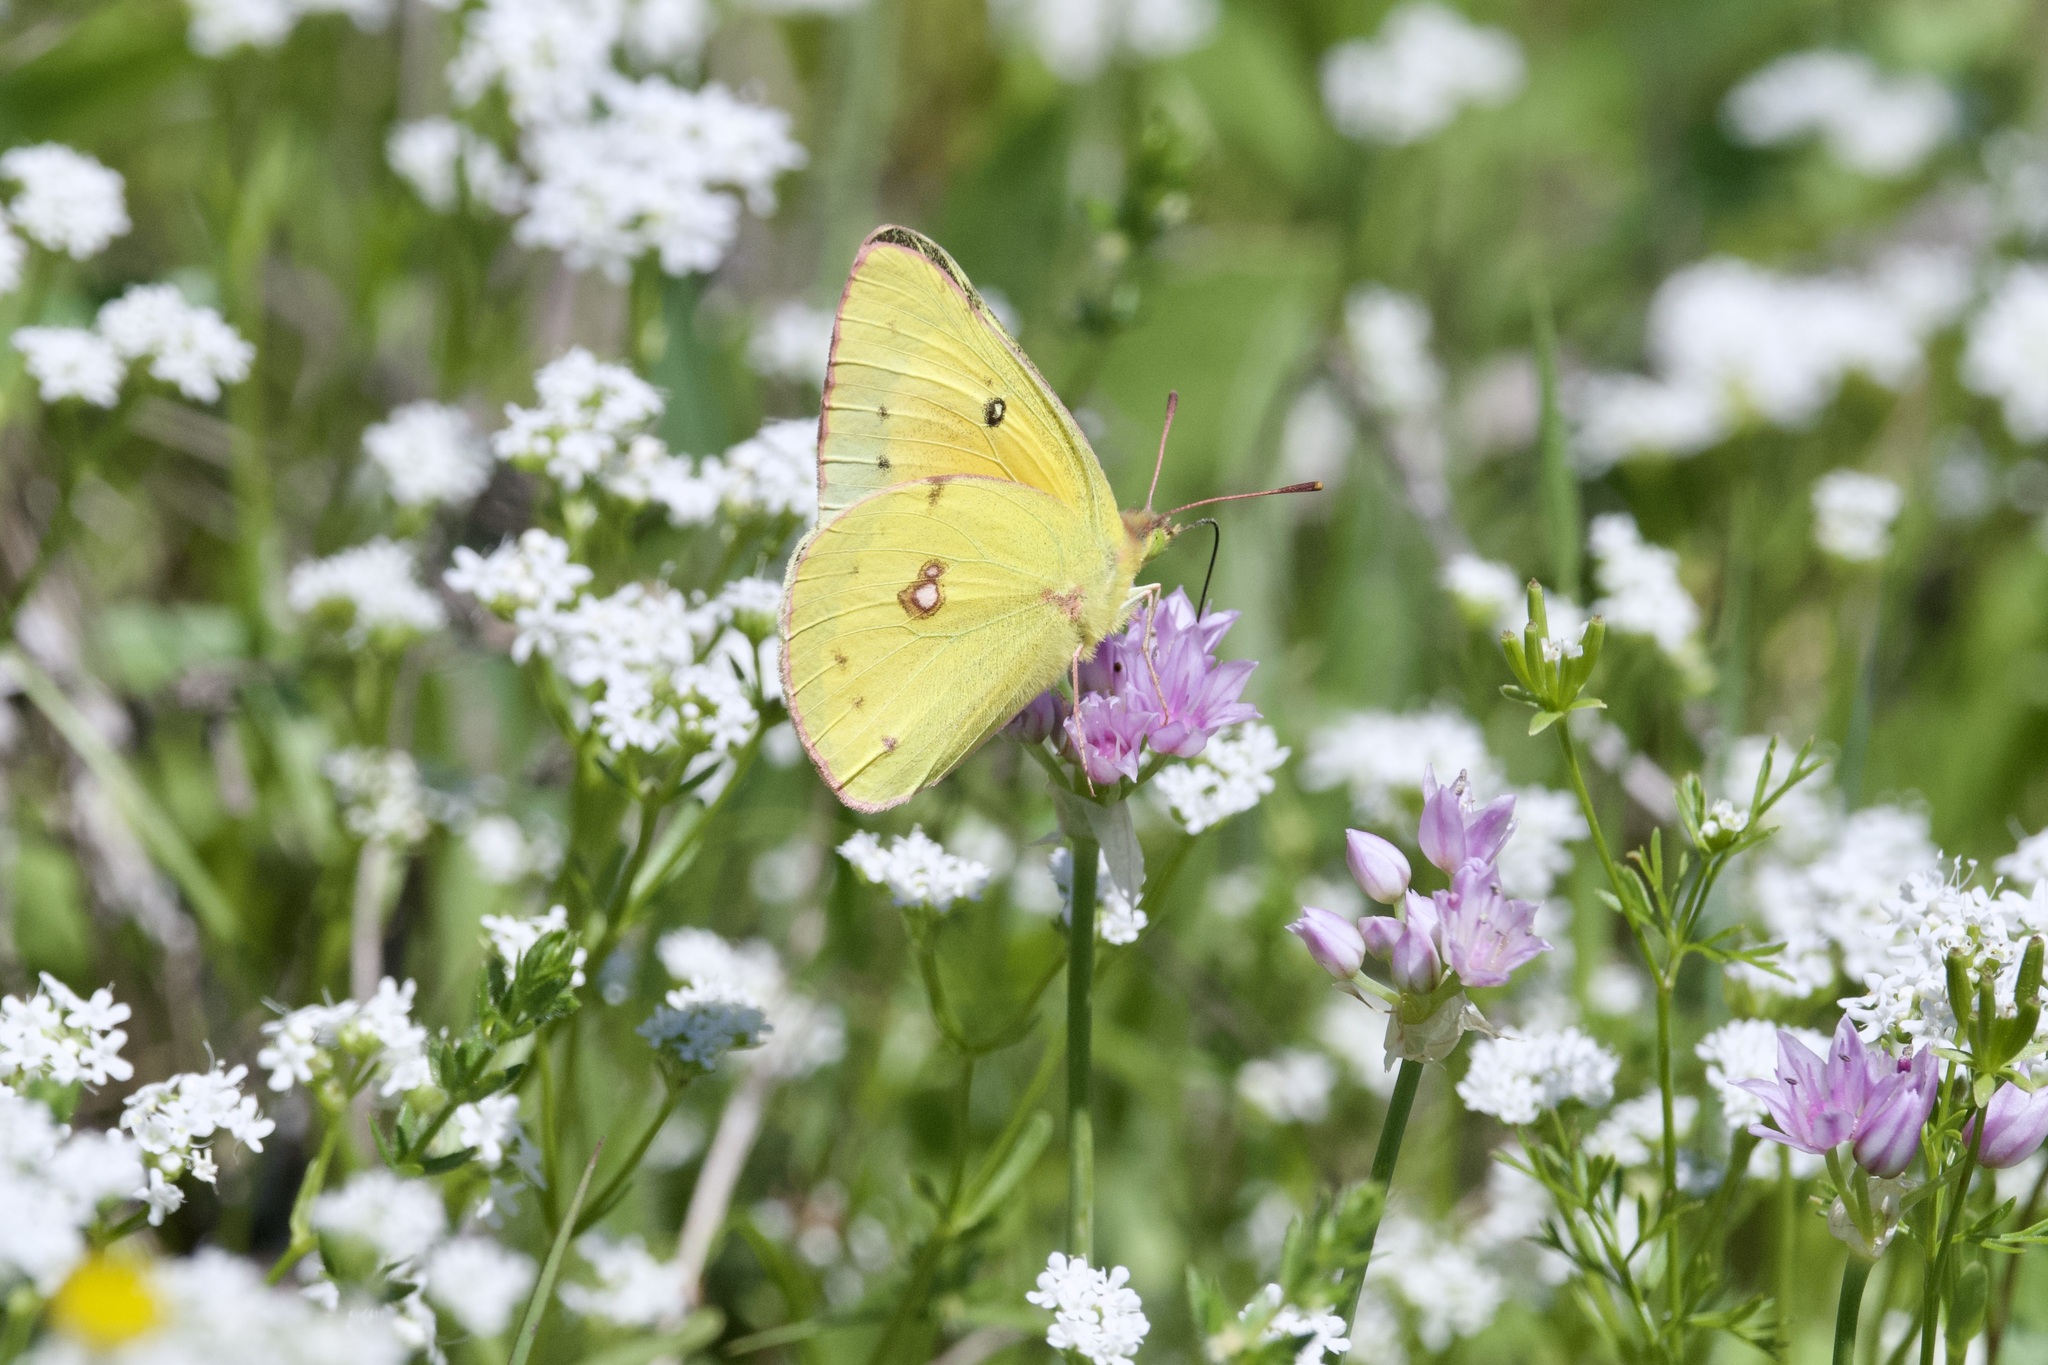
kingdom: Animalia
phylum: Arthropoda
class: Insecta
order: Lepidoptera
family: Pieridae
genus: Colias
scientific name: Colias eurytheme
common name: Alfalfa butterfly
